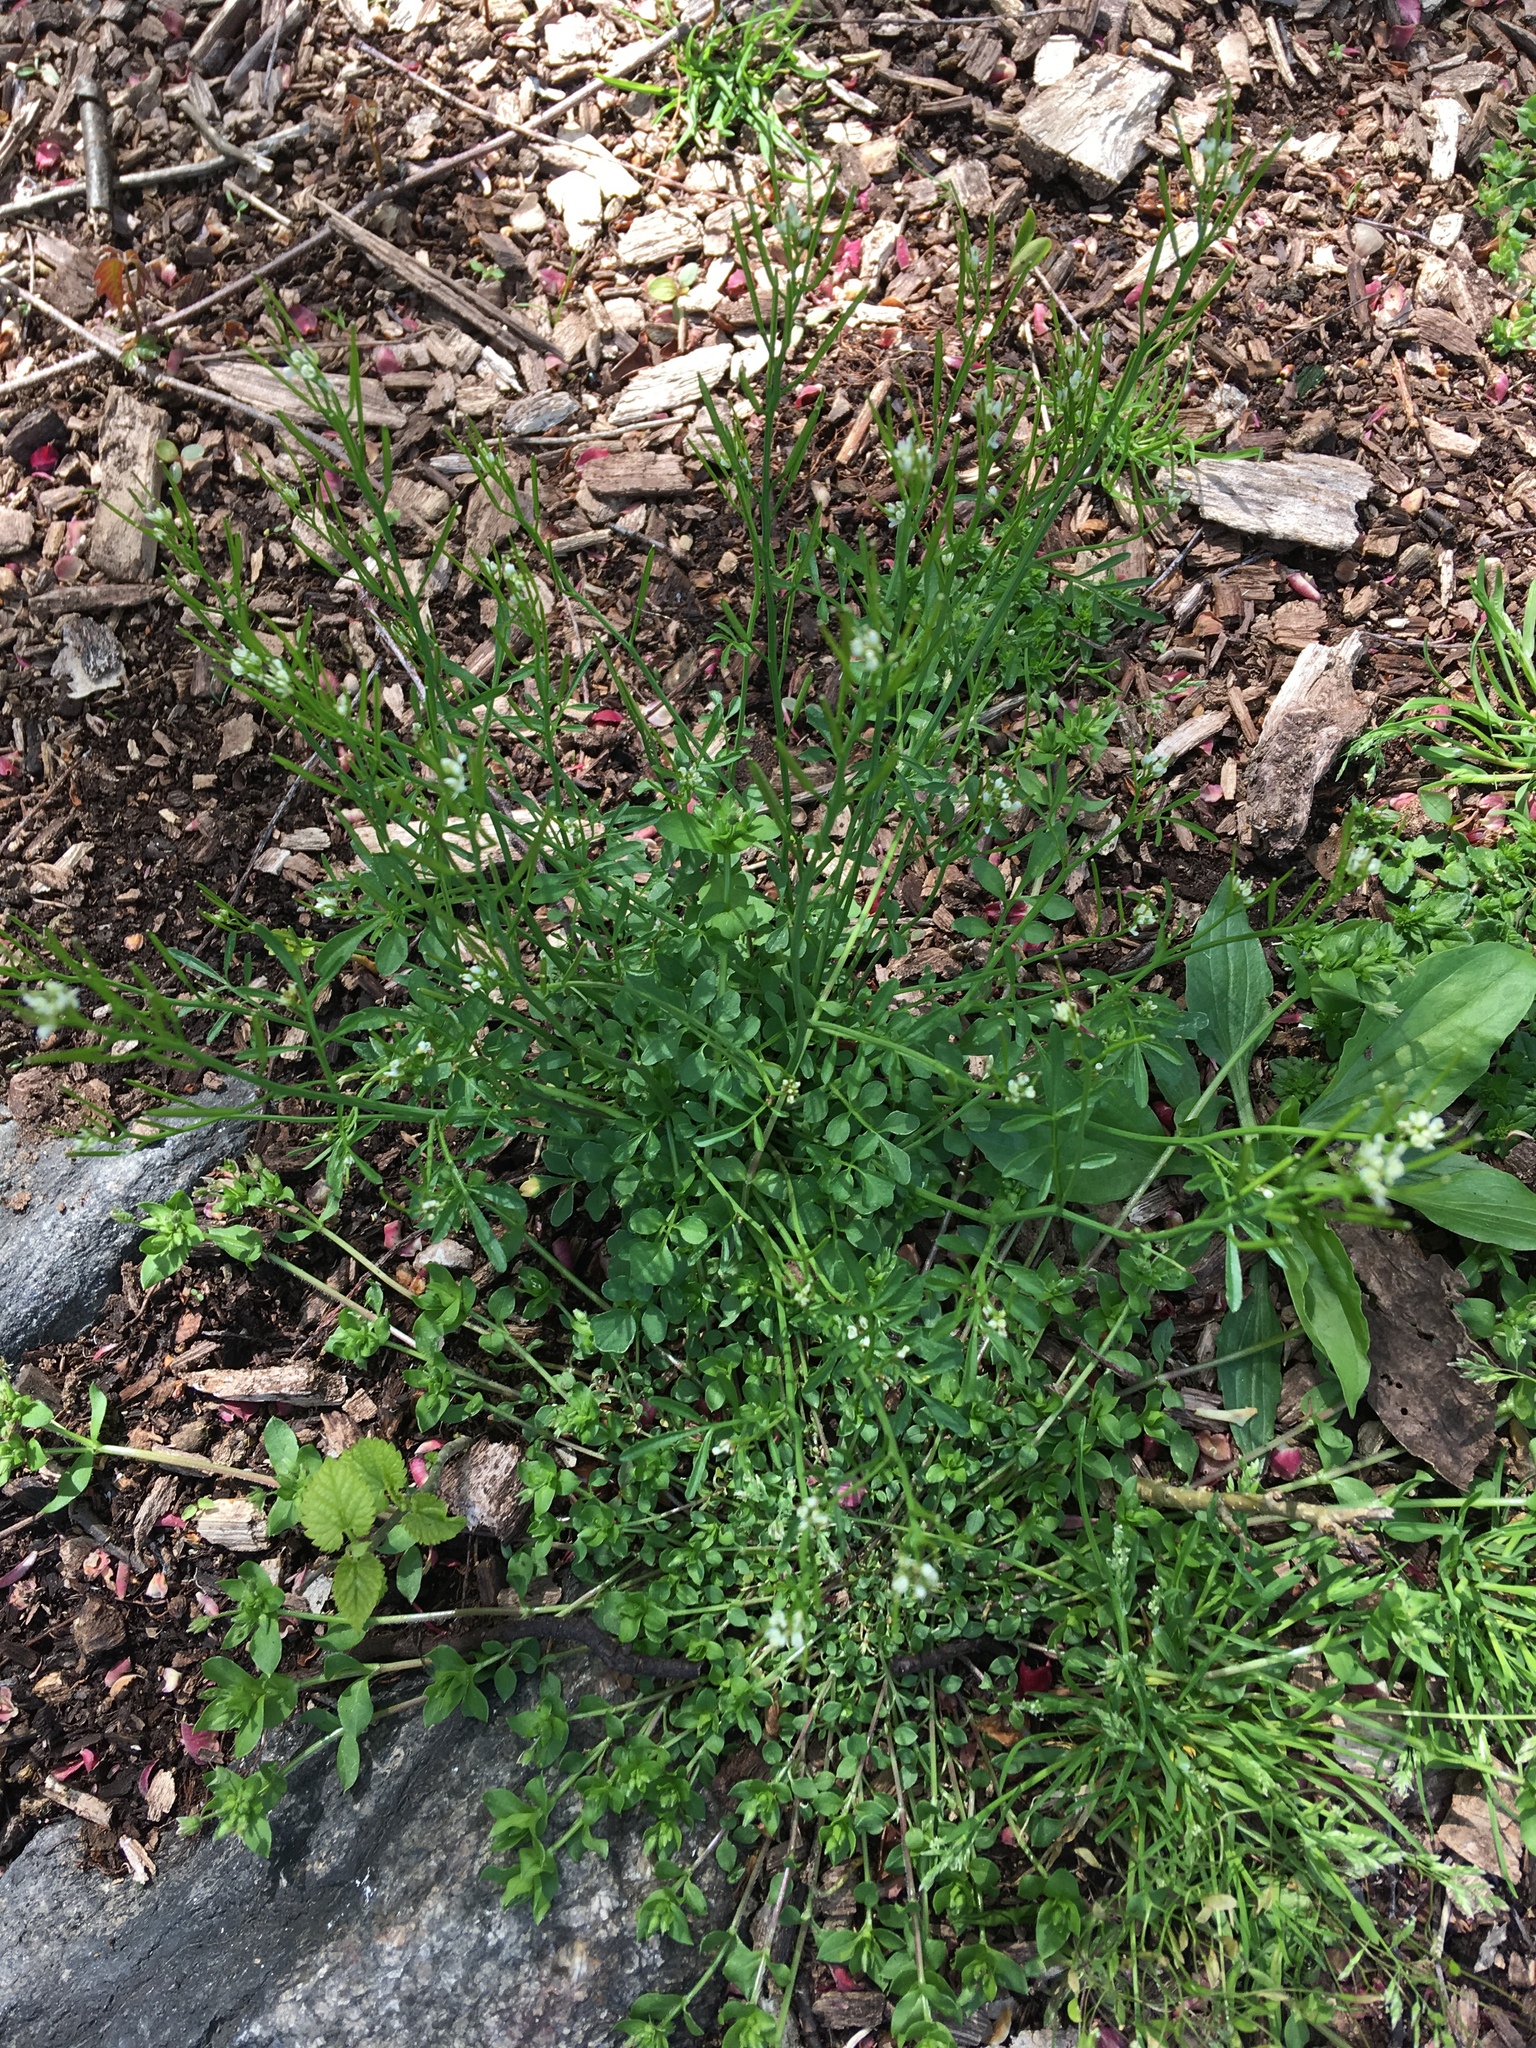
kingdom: Plantae
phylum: Tracheophyta
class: Magnoliopsida
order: Brassicales
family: Brassicaceae
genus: Cardamine
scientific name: Cardamine hirsuta
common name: Hairy bittercress
